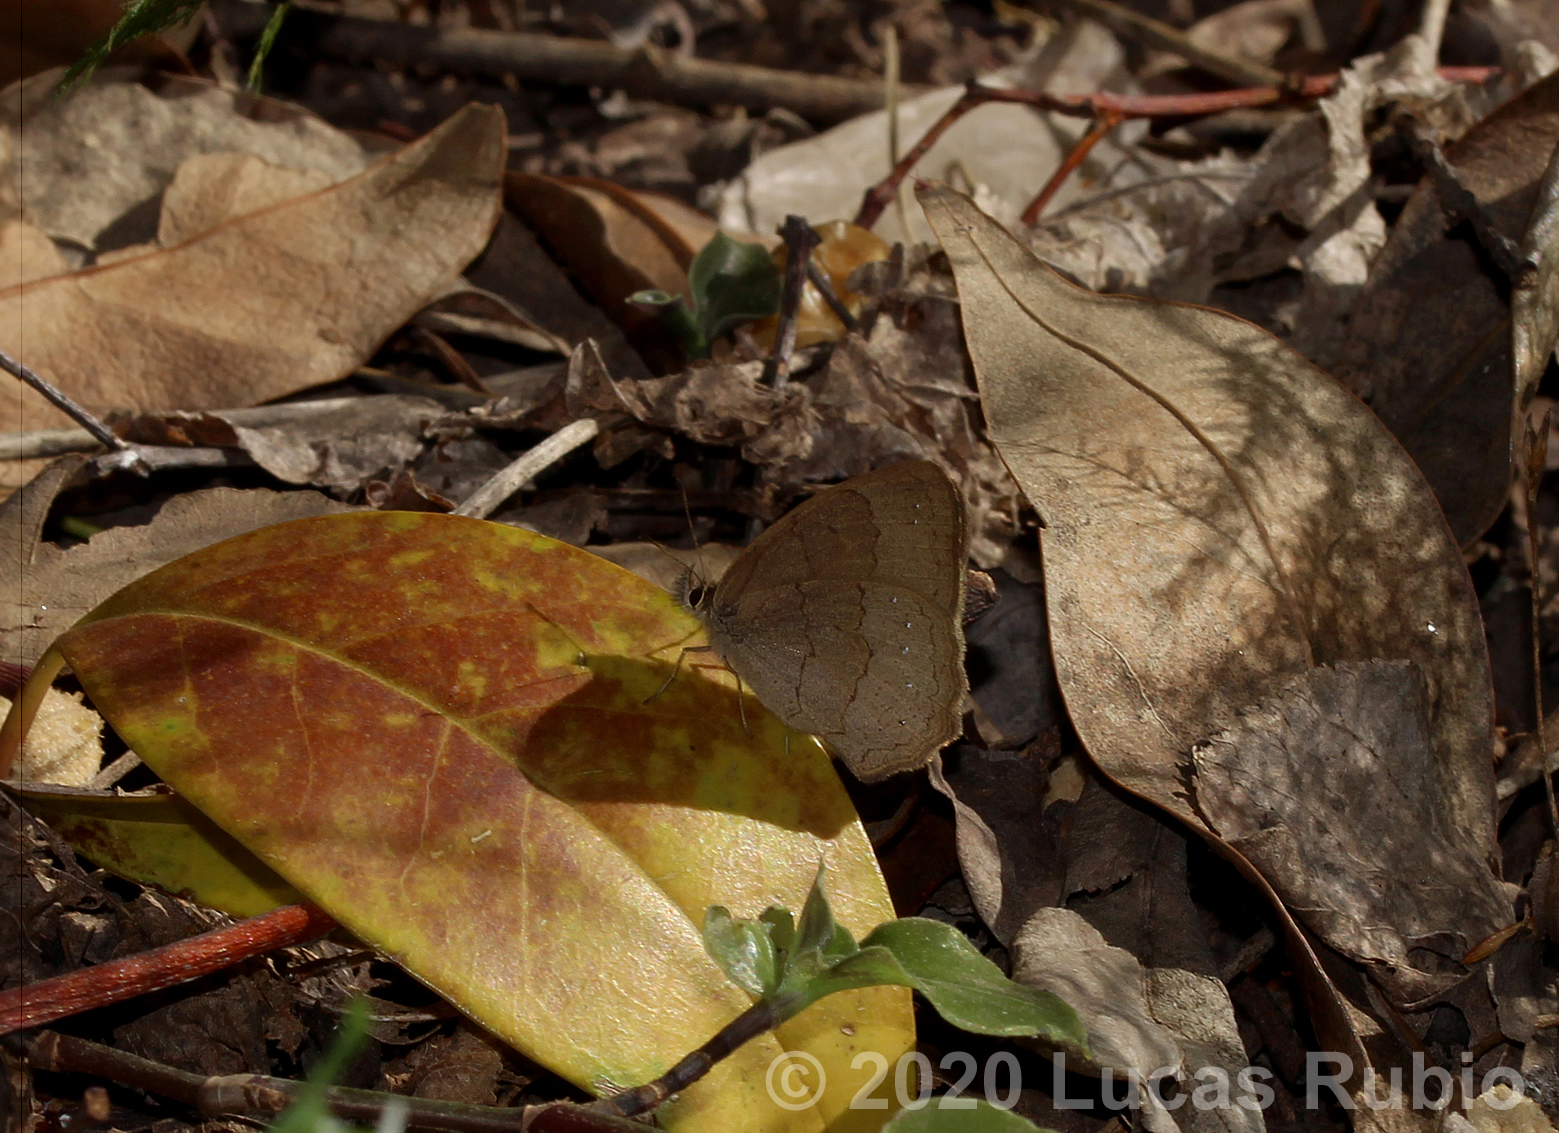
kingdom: Animalia
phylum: Arthropoda
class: Insecta
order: Lepidoptera
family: Nymphalidae
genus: Euptychia
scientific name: Euptychia
